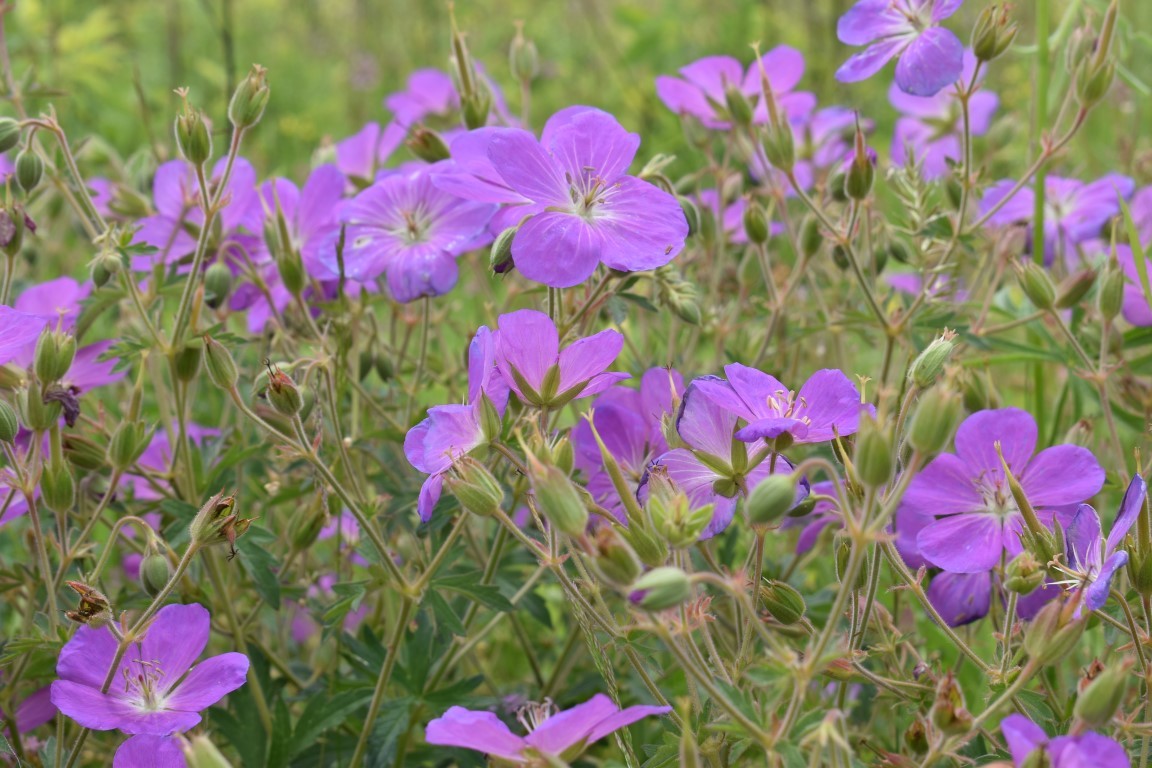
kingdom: Plantae
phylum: Tracheophyta
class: Magnoliopsida
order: Geraniales
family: Geraniaceae
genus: Geranium
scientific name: Geranium oreganum
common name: Oregon crane's-bill
